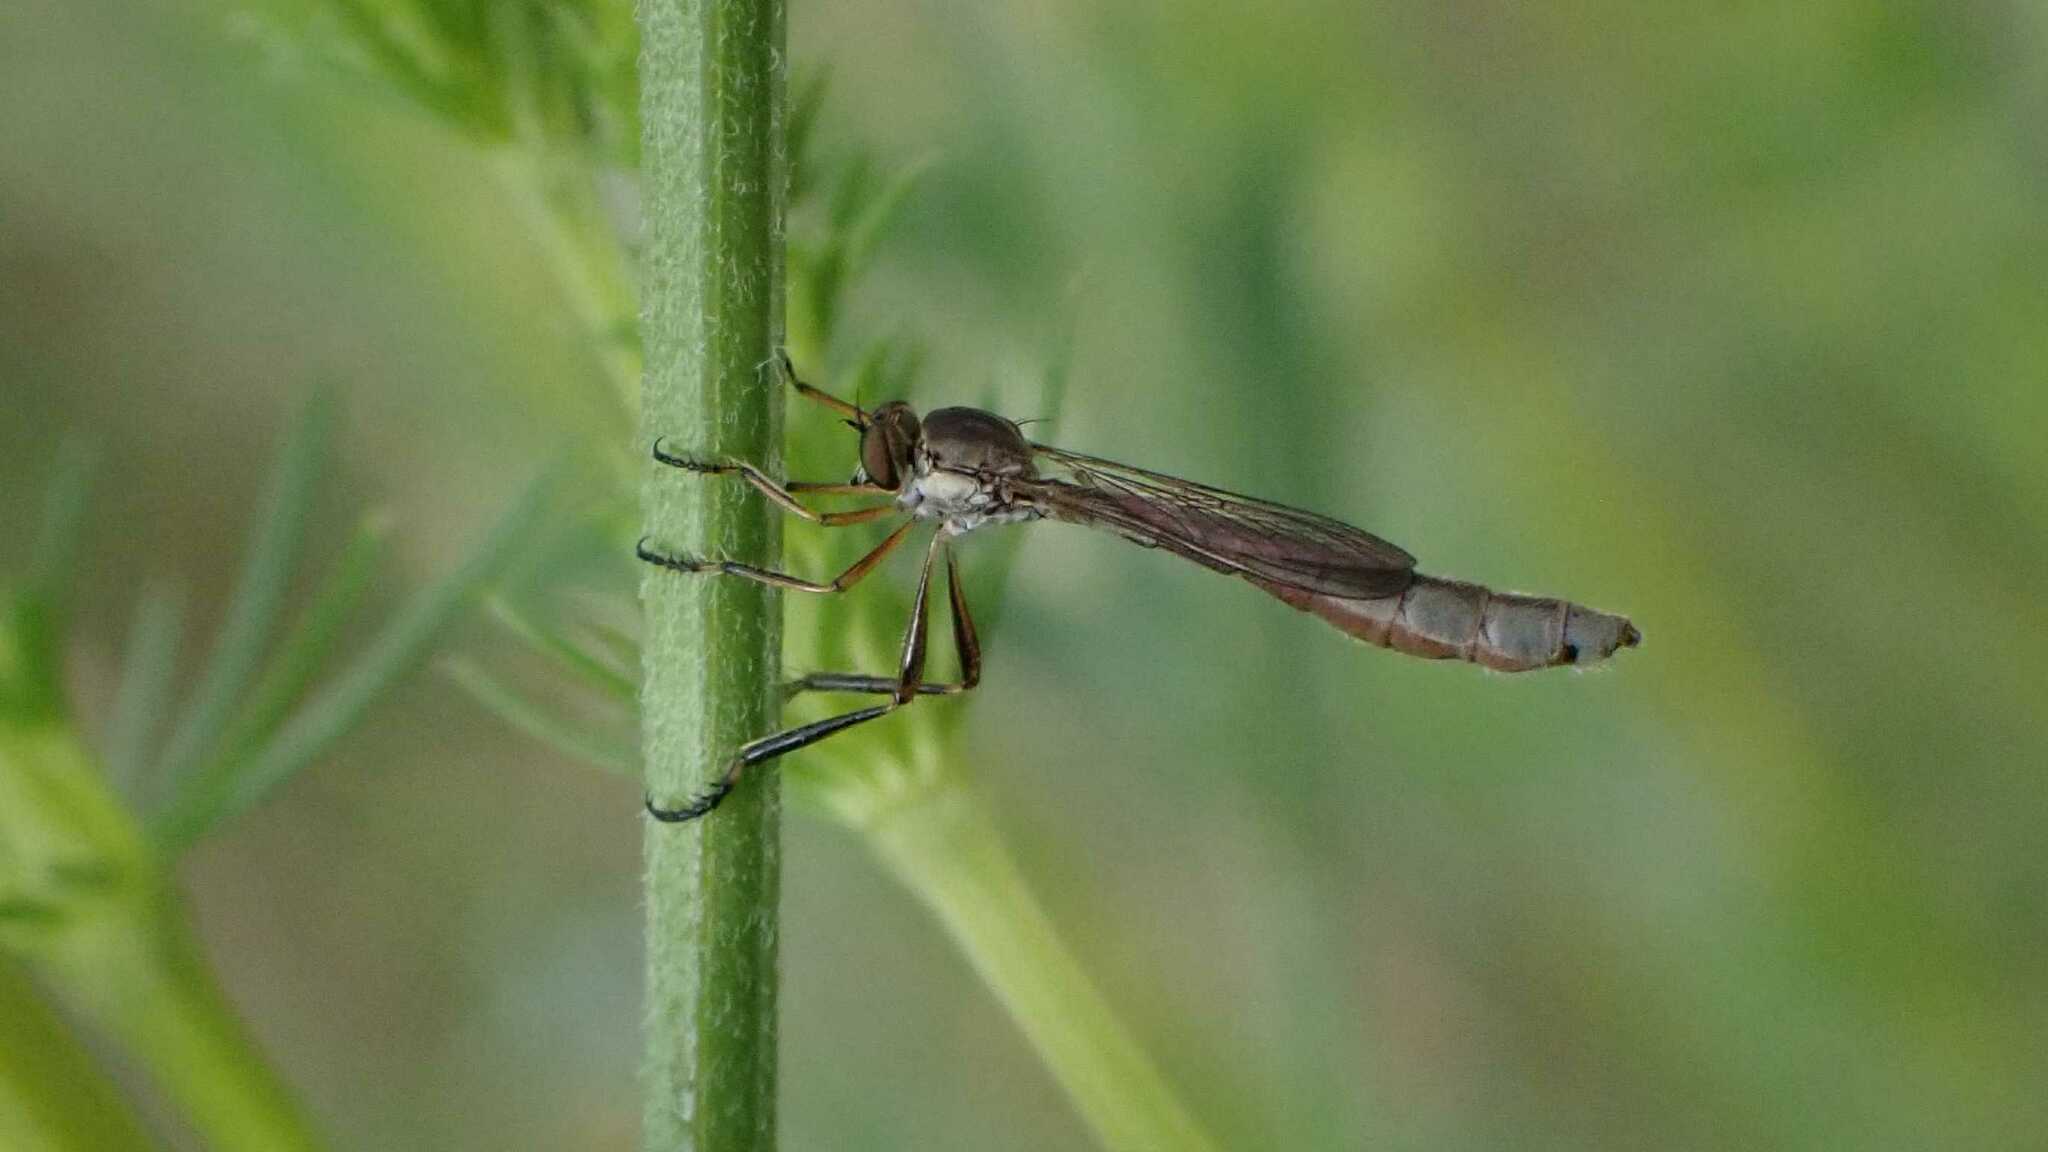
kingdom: Animalia
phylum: Arthropoda
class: Insecta
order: Diptera
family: Asilidae
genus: Leptogaster
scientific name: Leptogaster cylindrica
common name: Striped slender robberfly
